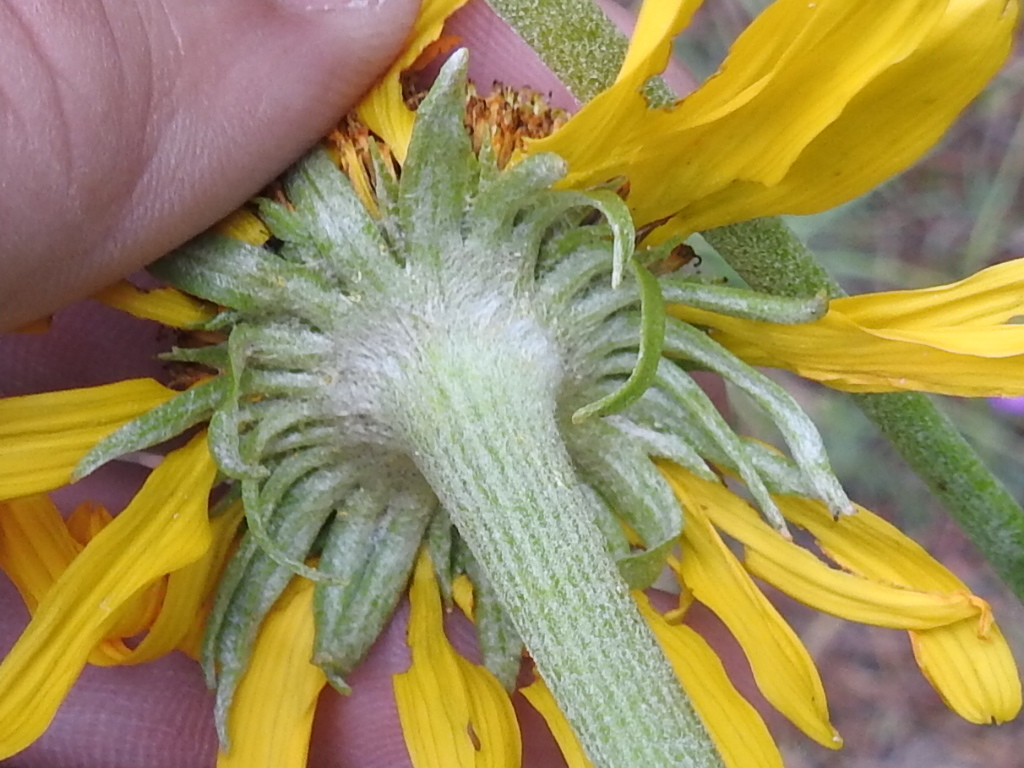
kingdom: Plantae
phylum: Tracheophyta
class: Magnoliopsida
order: Asterales
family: Asteraceae
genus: Hymenoxys
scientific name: Hymenoxys hoopesii
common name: Orange-sneezeweed
